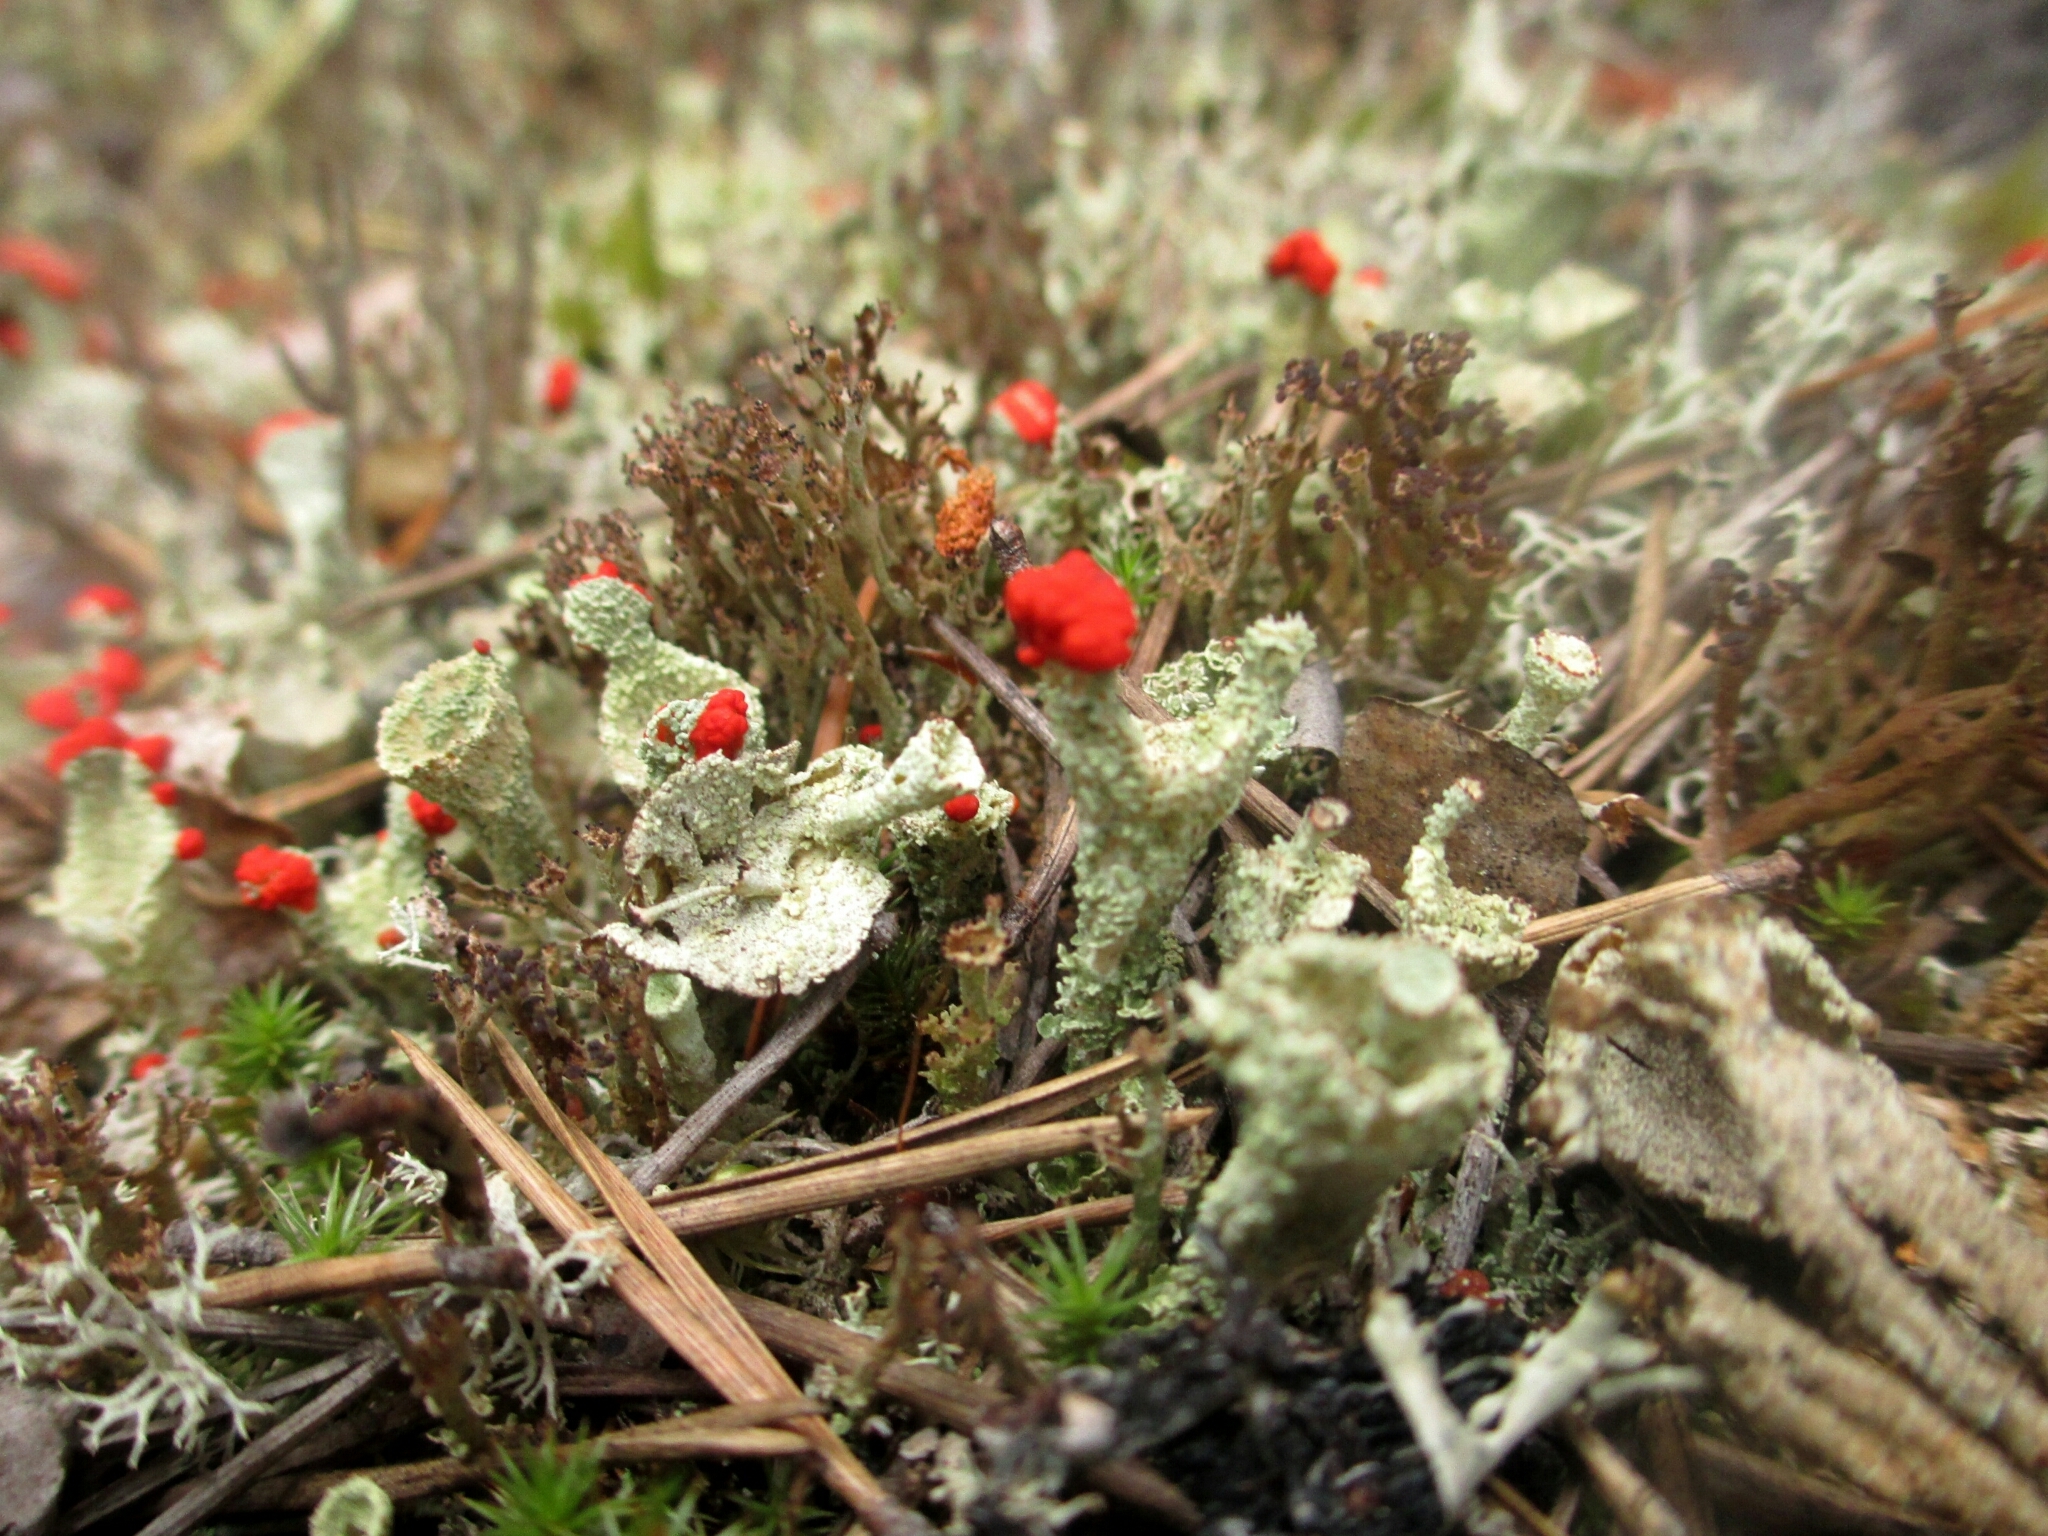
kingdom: Fungi
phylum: Ascomycota
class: Lecanoromycetes
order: Lecanorales
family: Cladoniaceae
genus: Cladonia
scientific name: Cladonia
